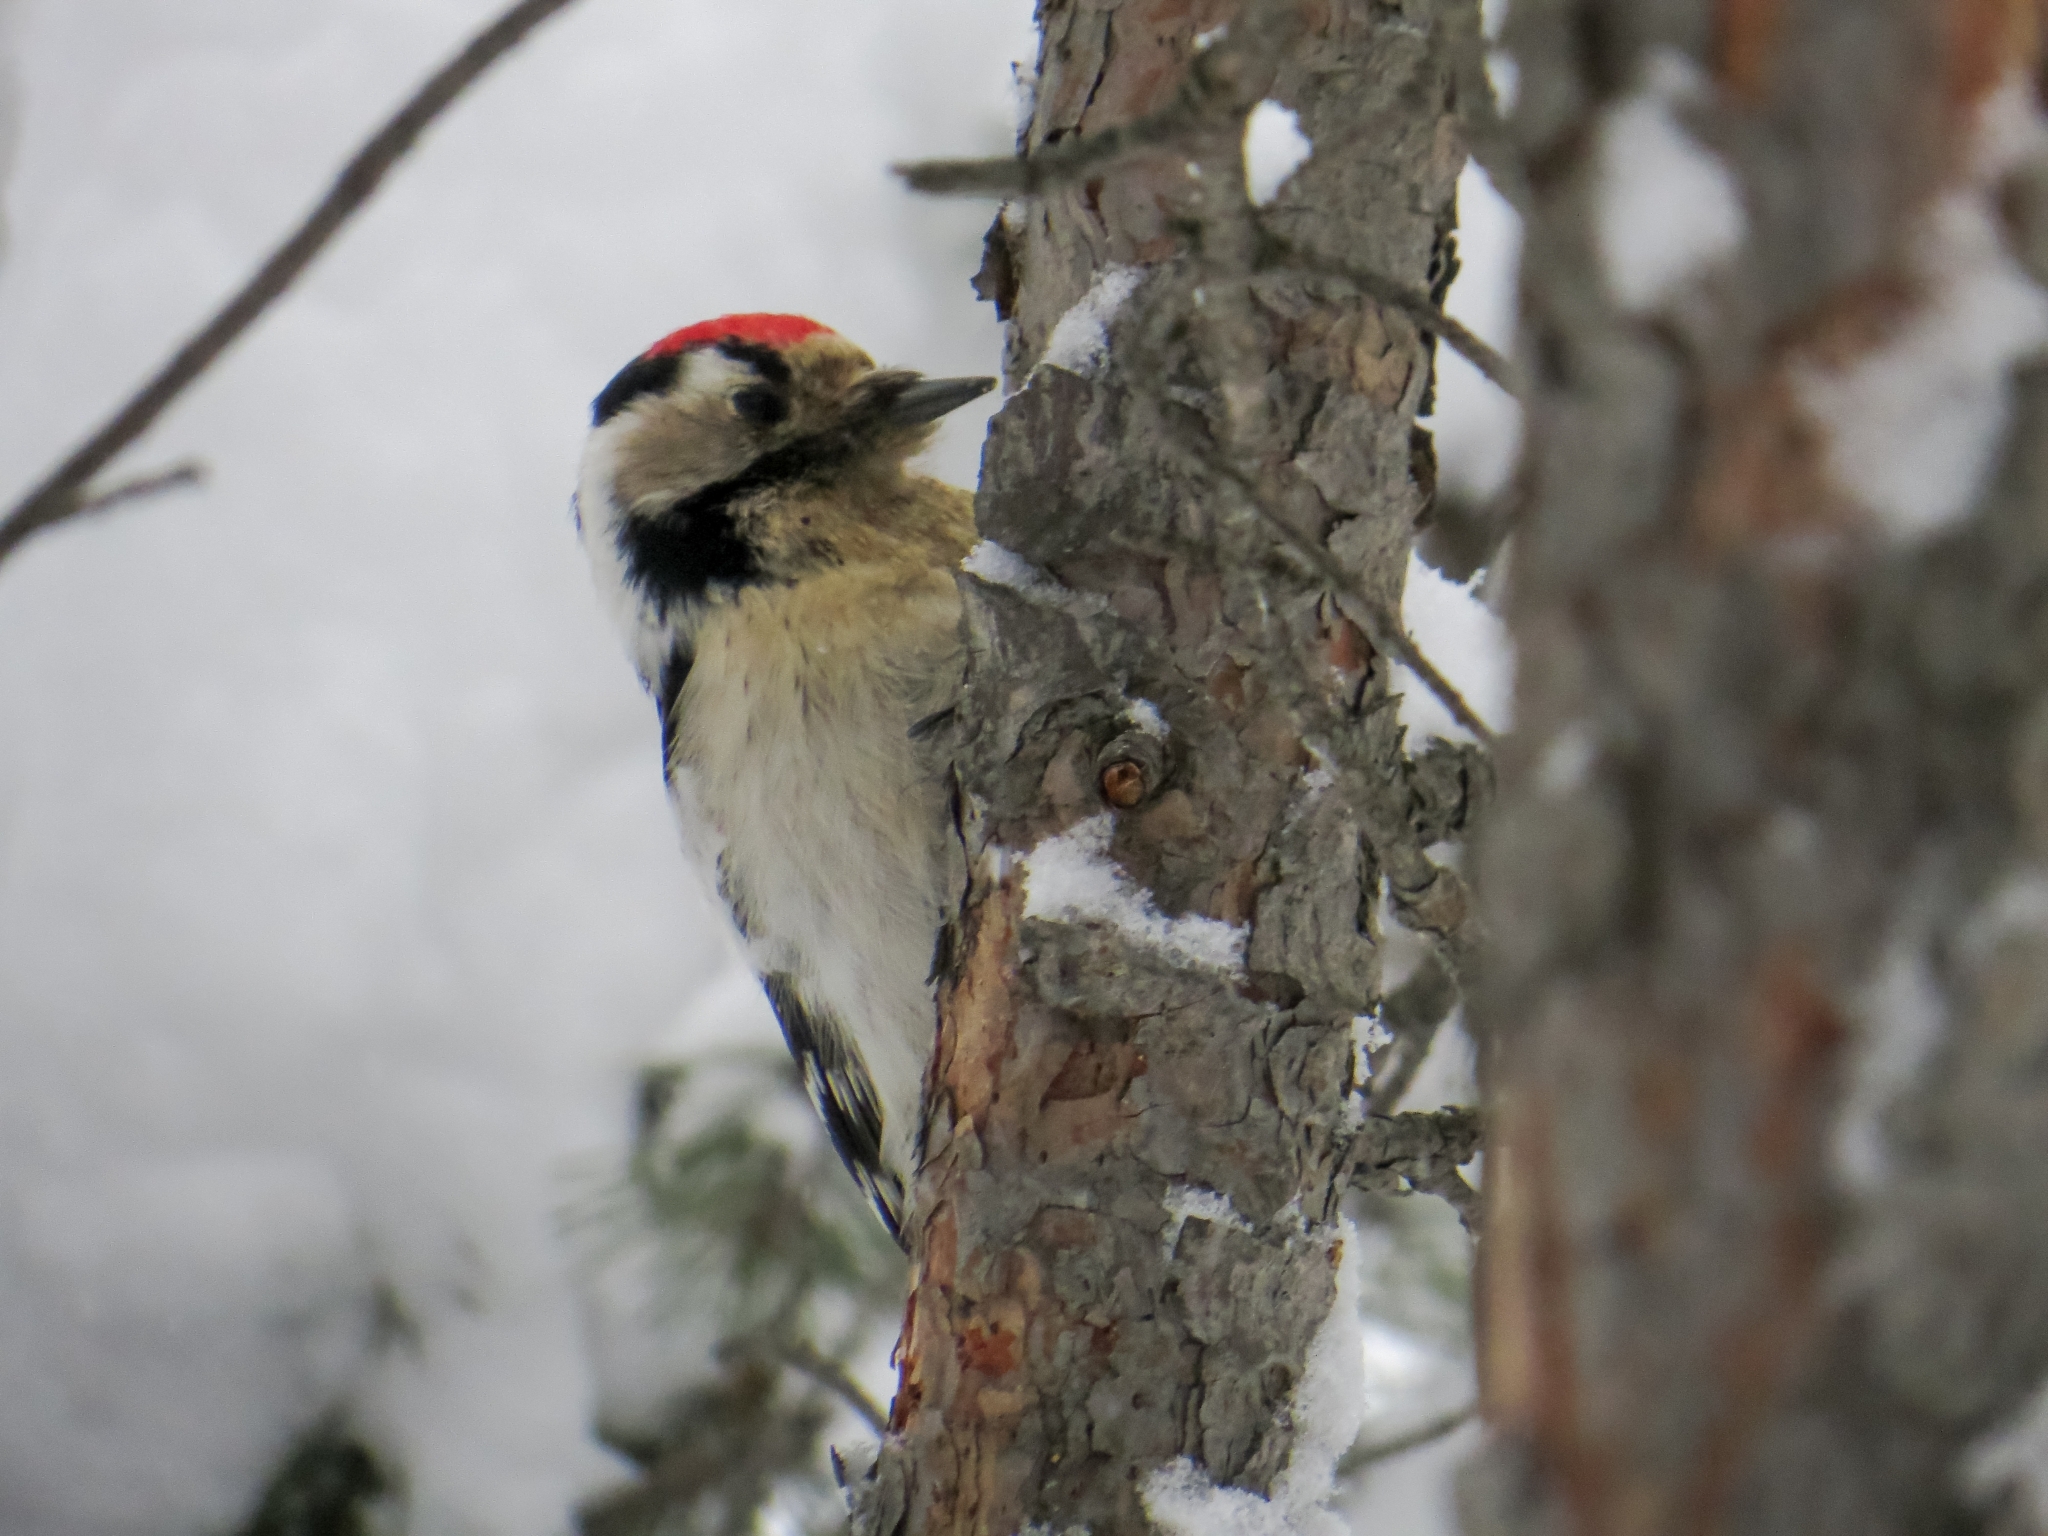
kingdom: Animalia
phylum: Chordata
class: Aves
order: Piciformes
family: Picidae
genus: Dryobates
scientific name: Dryobates minor
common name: Lesser spotted woodpecker
